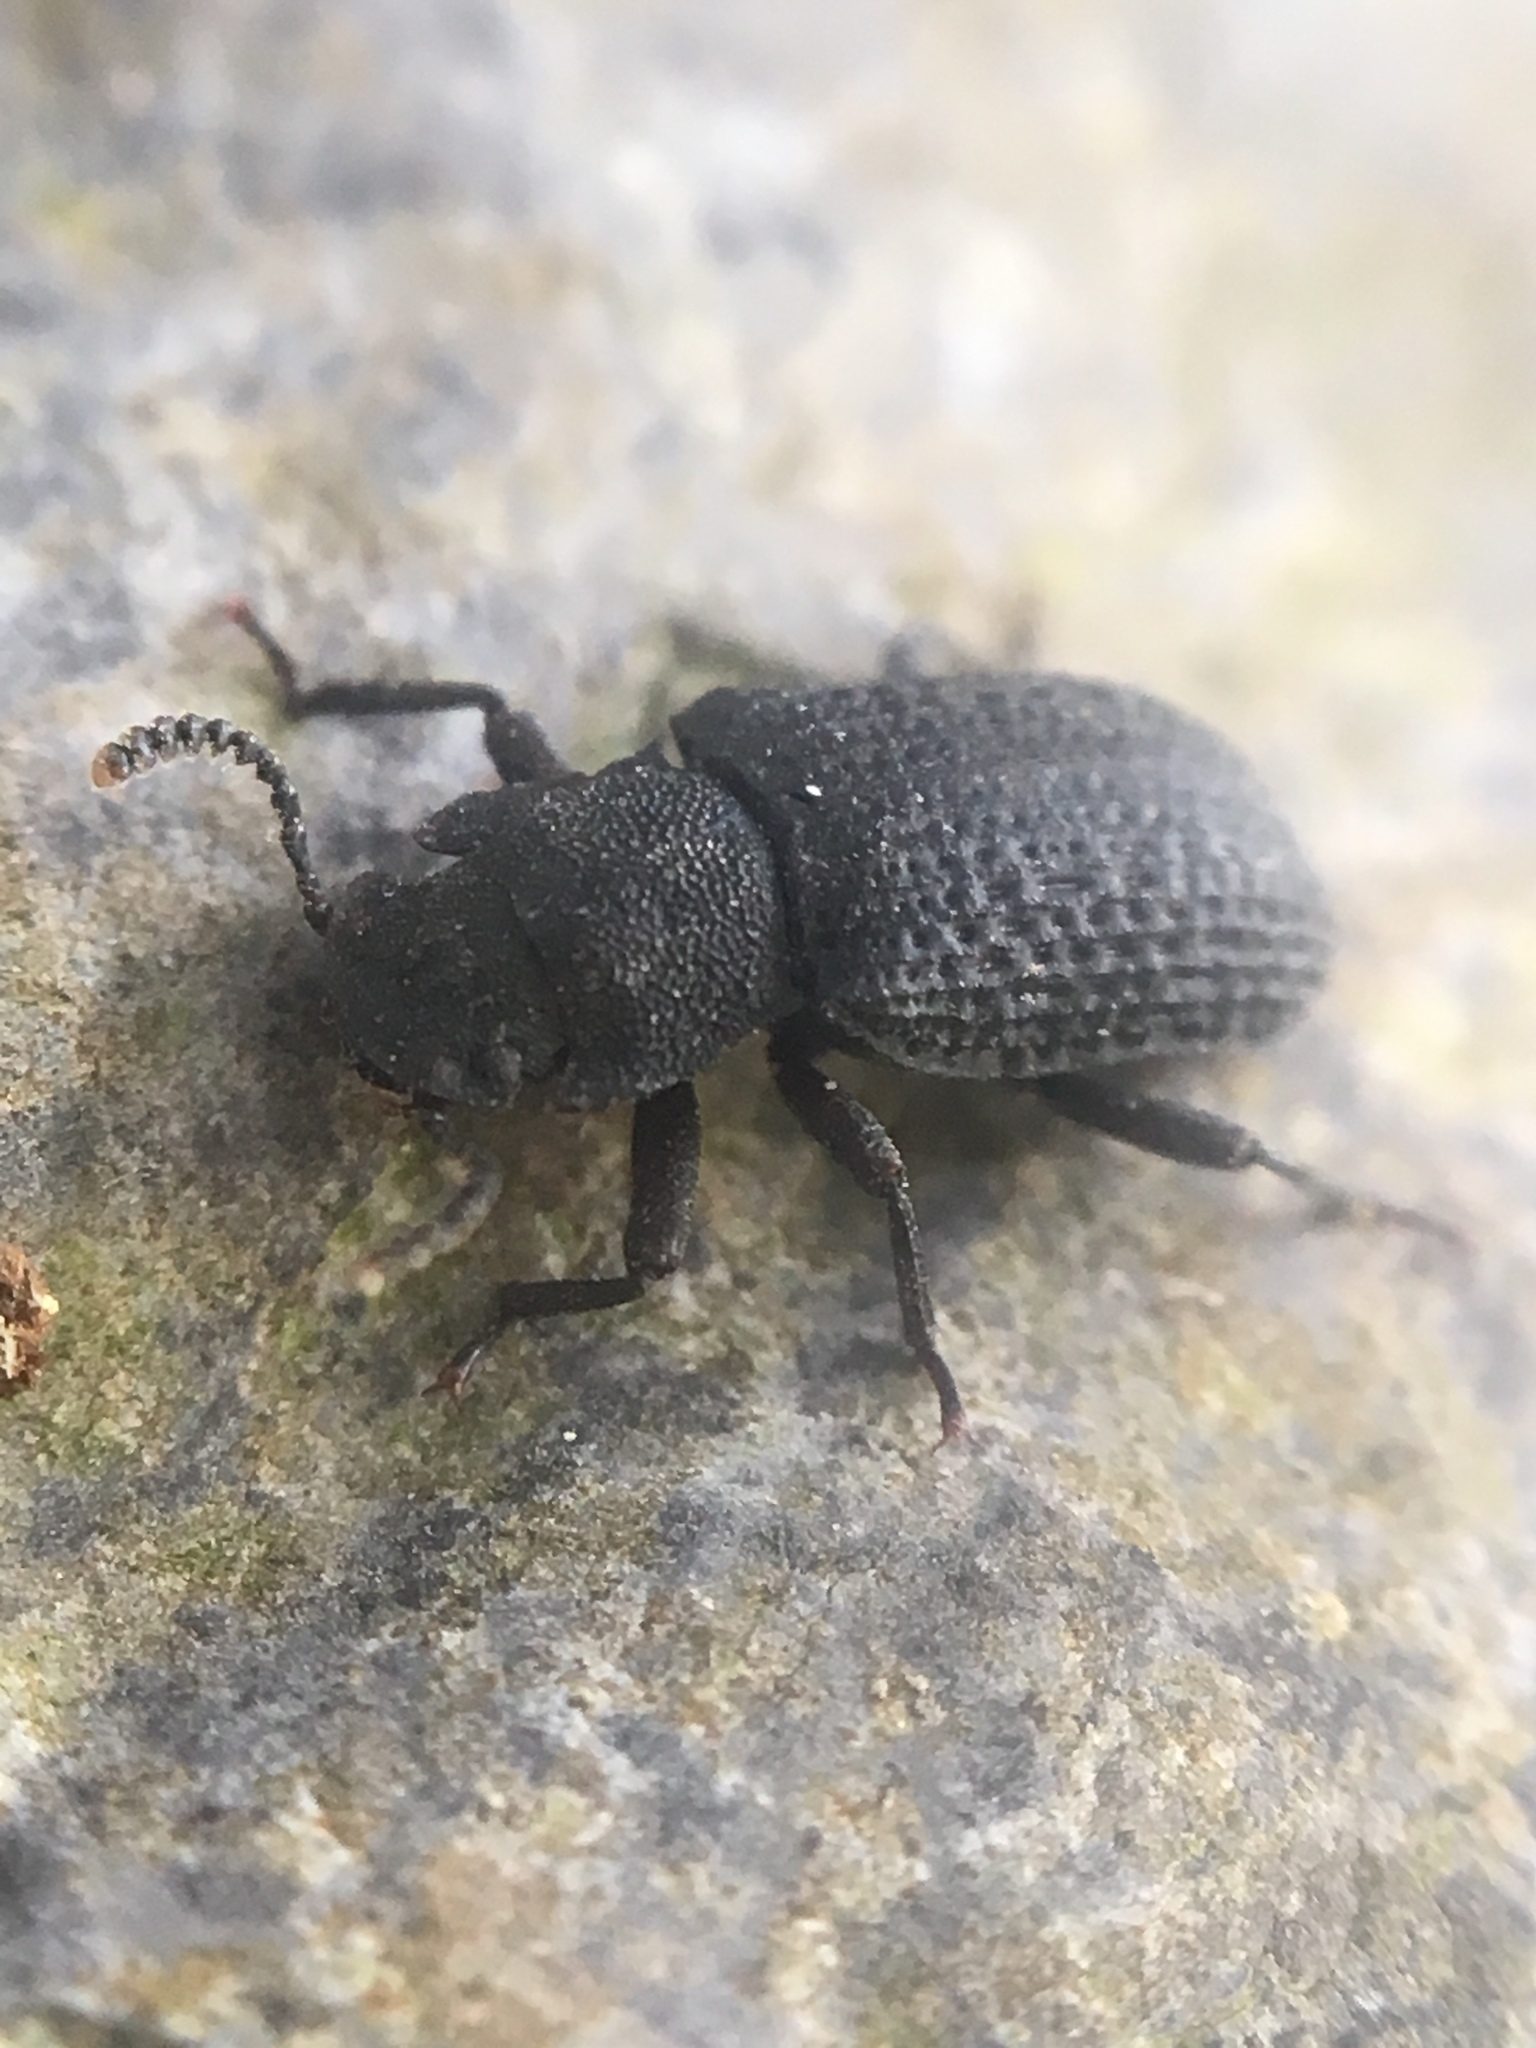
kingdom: Animalia
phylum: Arthropoda
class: Insecta
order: Coleoptera
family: Tenebrionidae
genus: Bolitophagus
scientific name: Bolitophagus reticulatus
